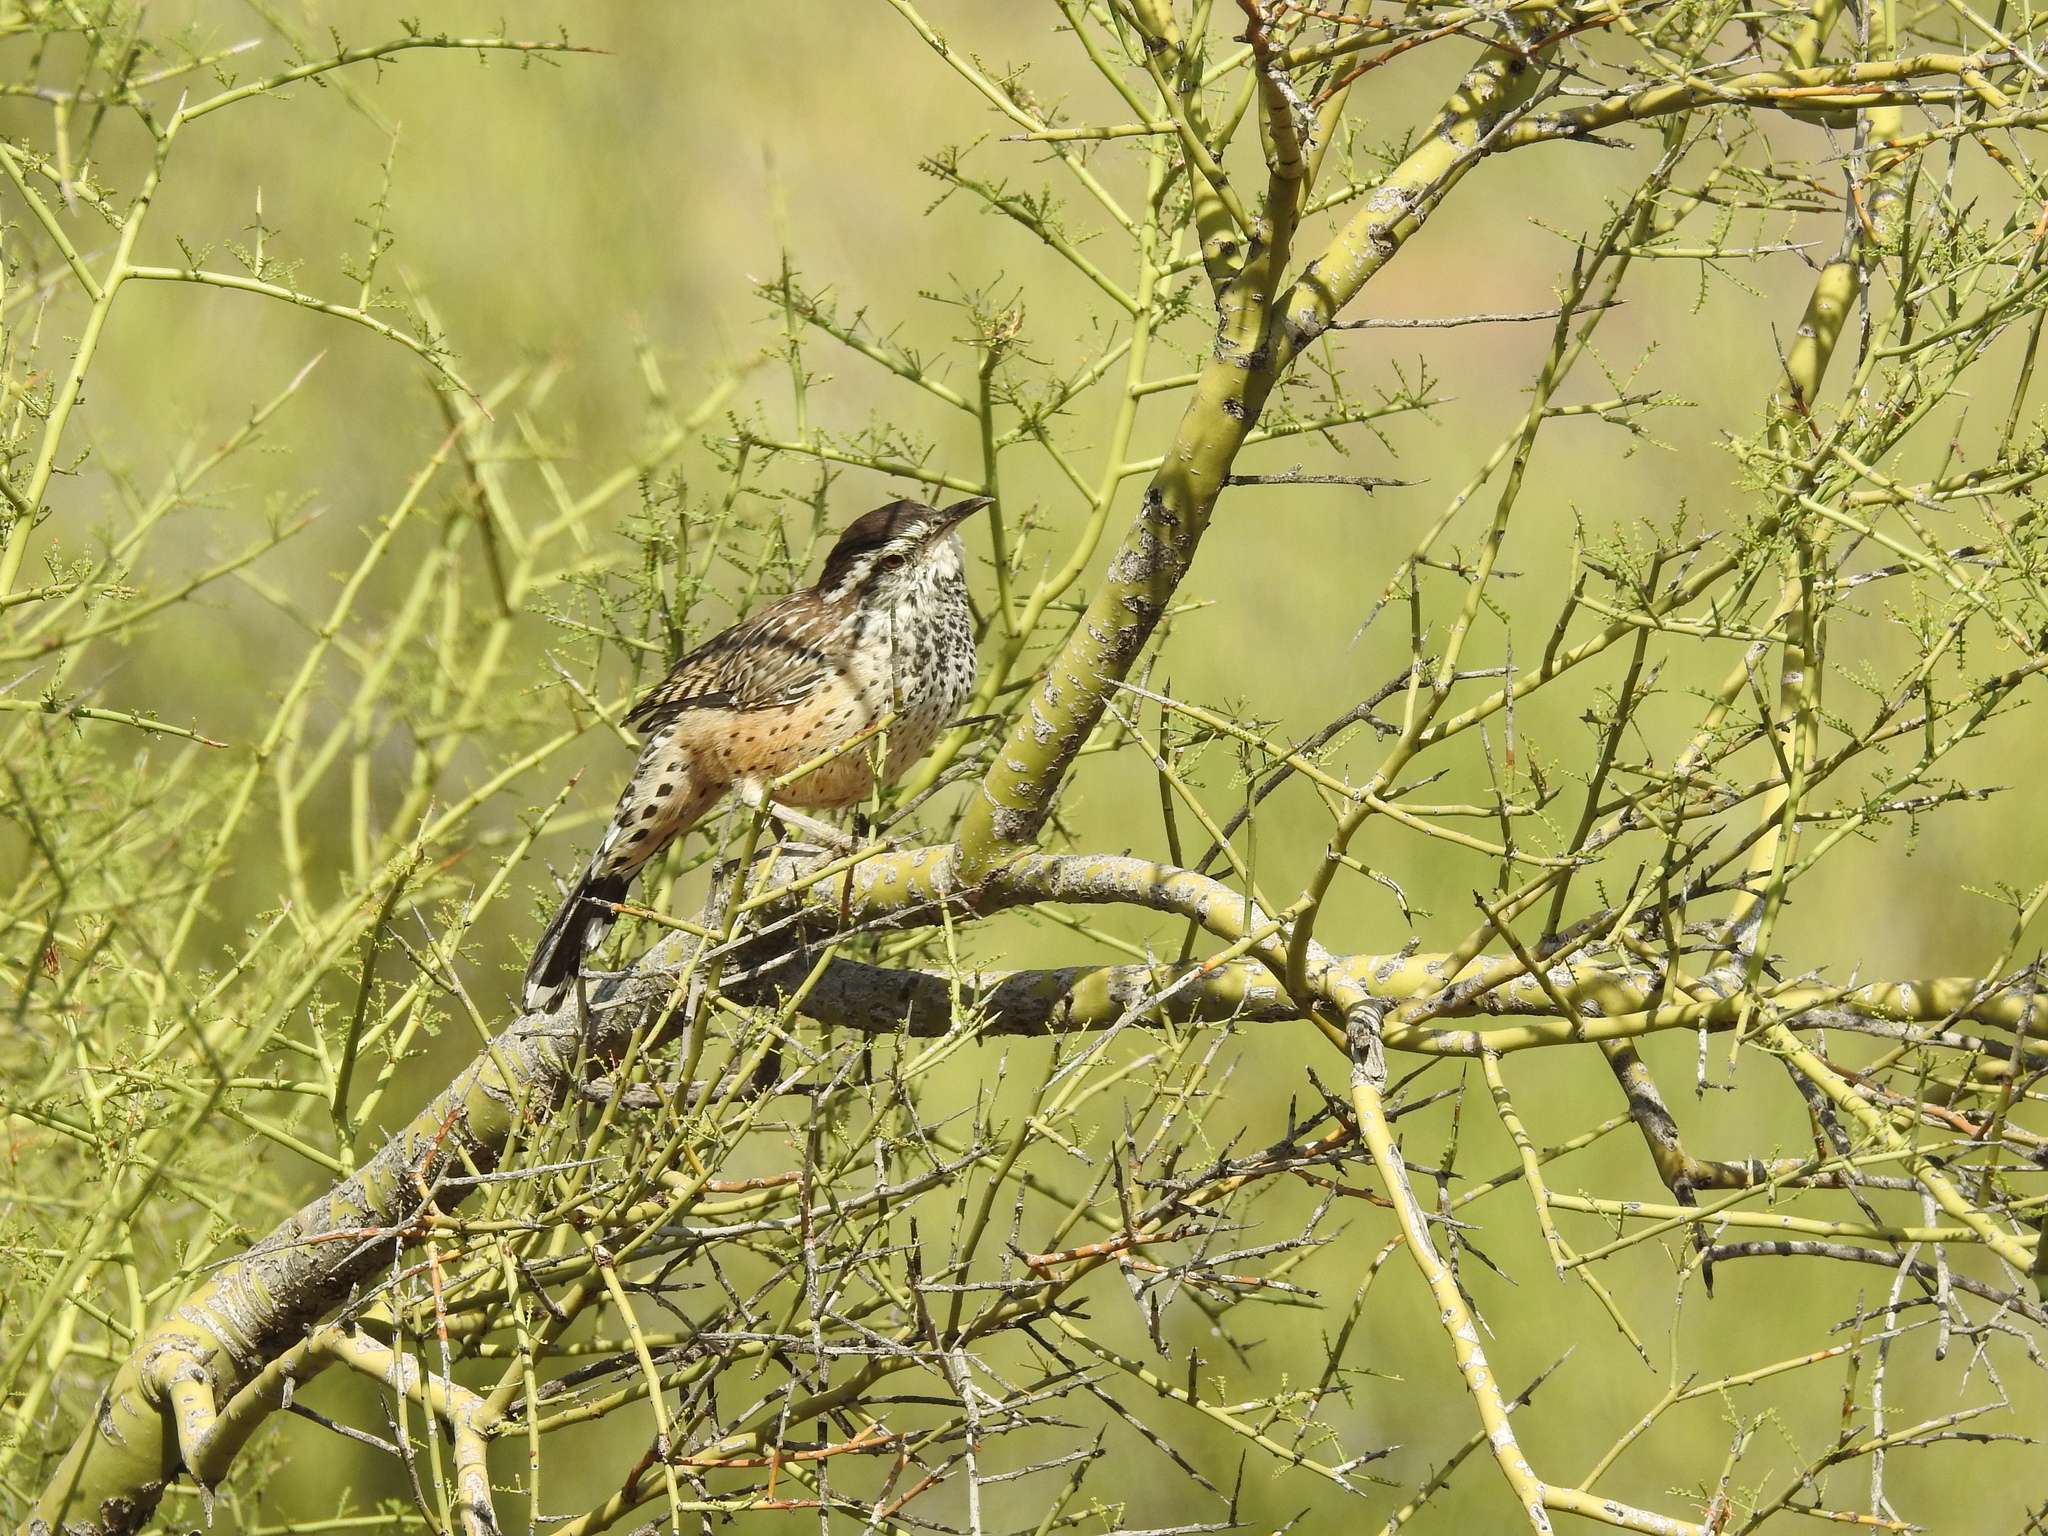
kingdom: Animalia
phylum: Chordata
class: Aves
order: Passeriformes
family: Troglodytidae
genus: Campylorhynchus
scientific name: Campylorhynchus brunneicapillus
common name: Cactus wren
